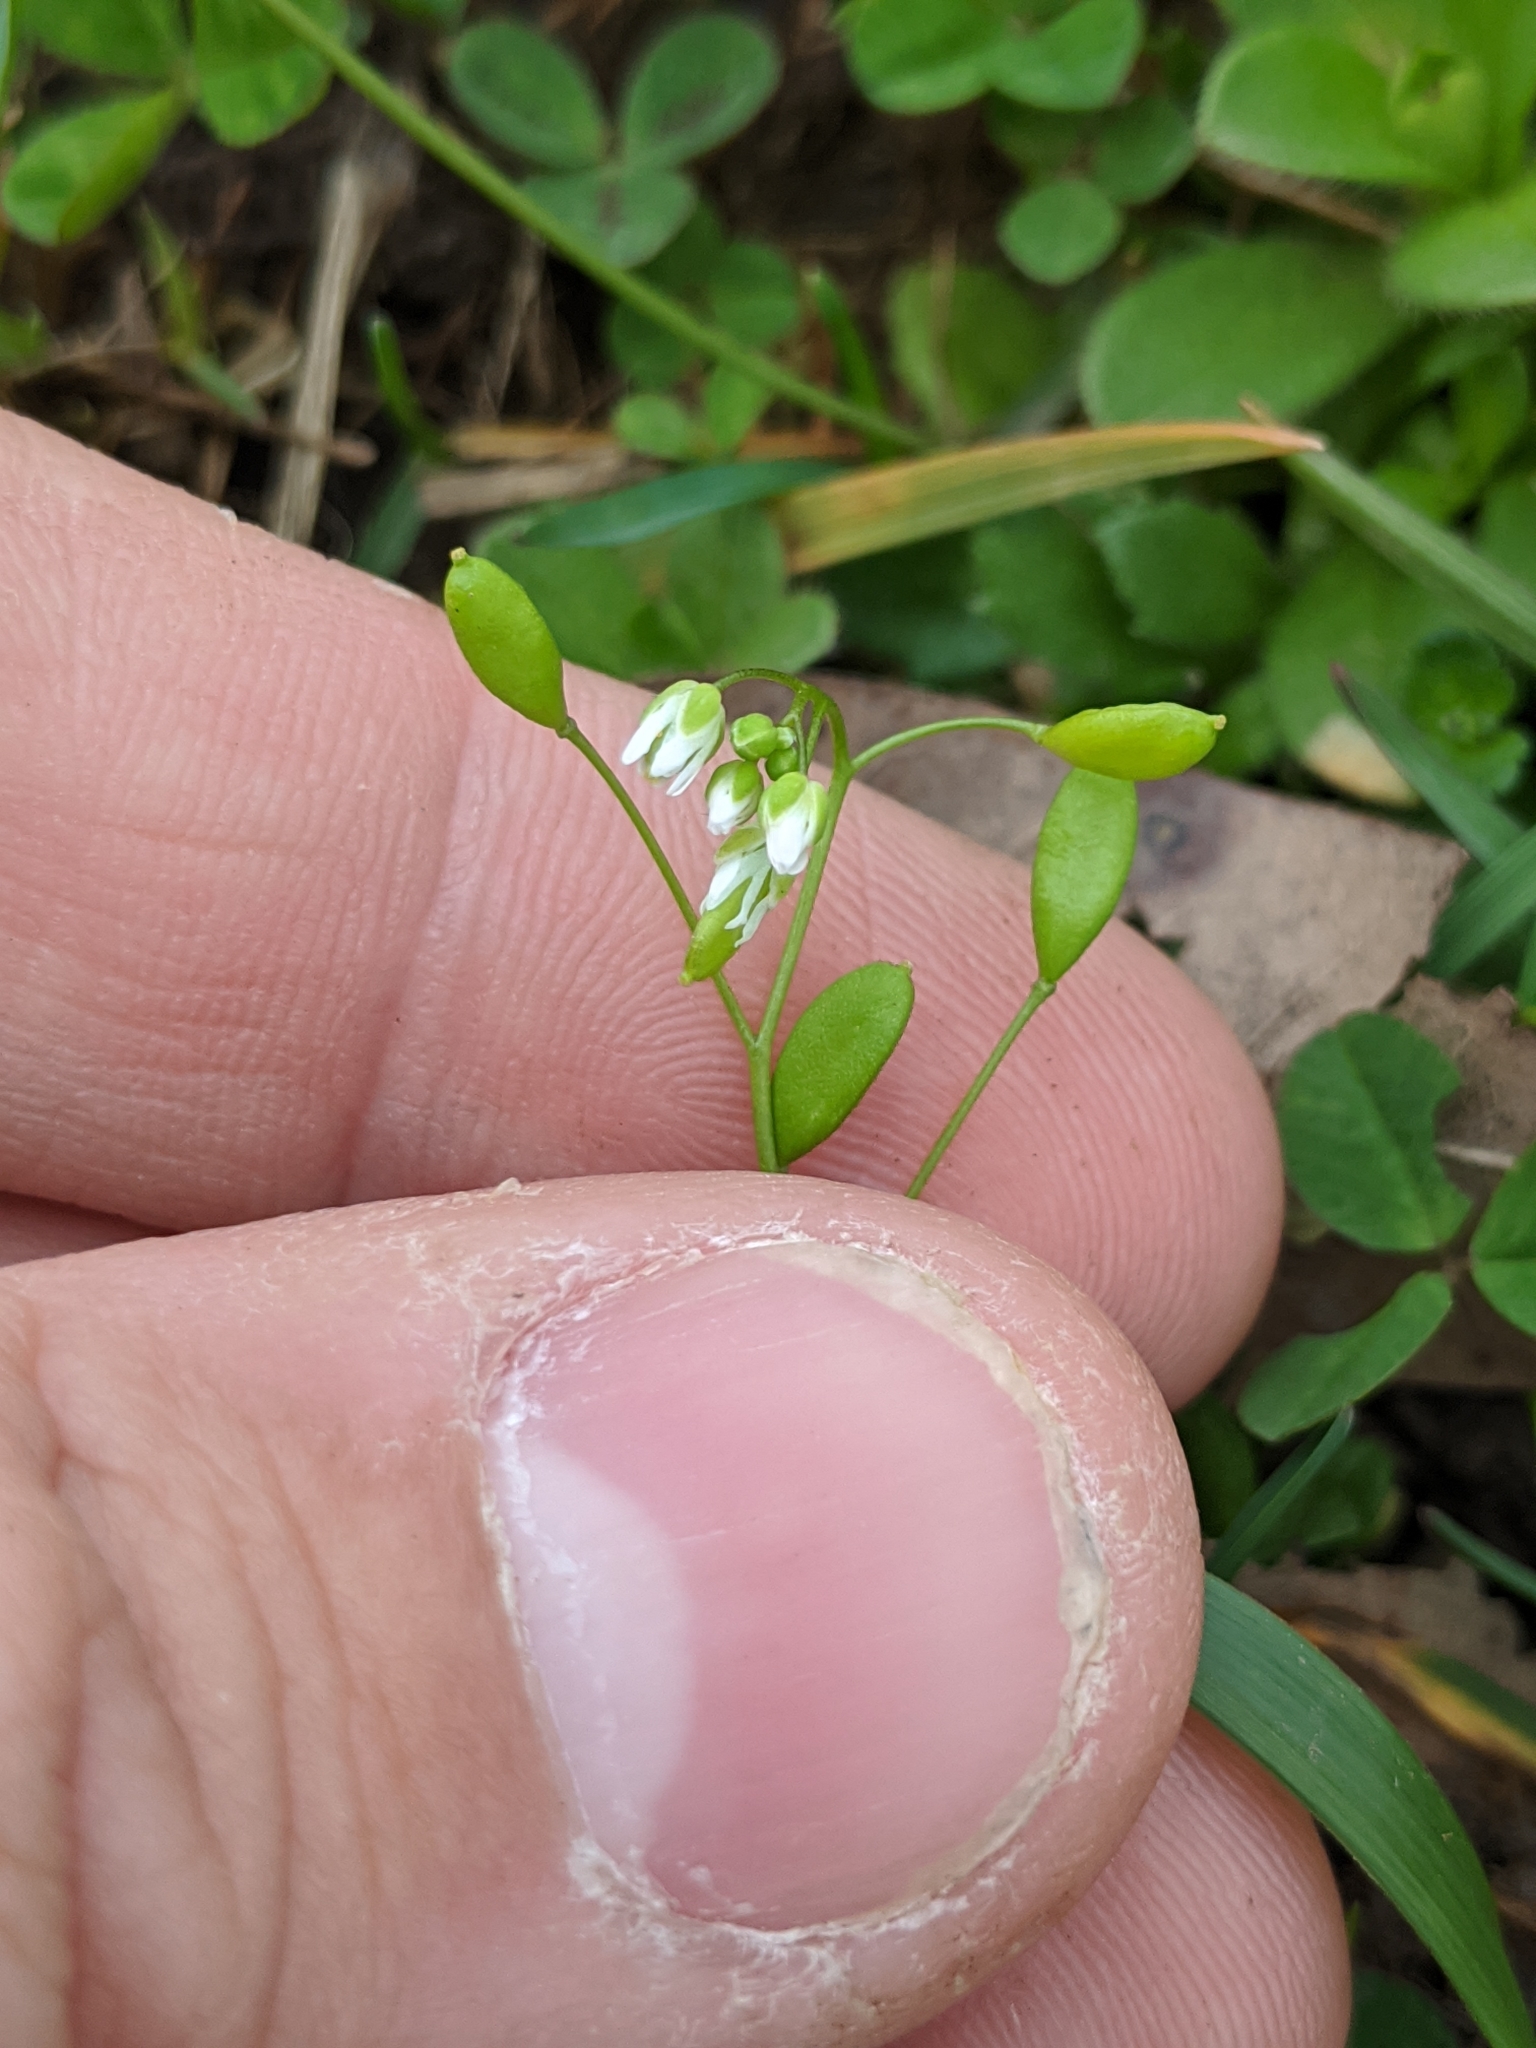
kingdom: Plantae
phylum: Tracheophyta
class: Magnoliopsida
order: Brassicales
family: Brassicaceae
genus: Draba
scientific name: Draba verna
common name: Spring draba
